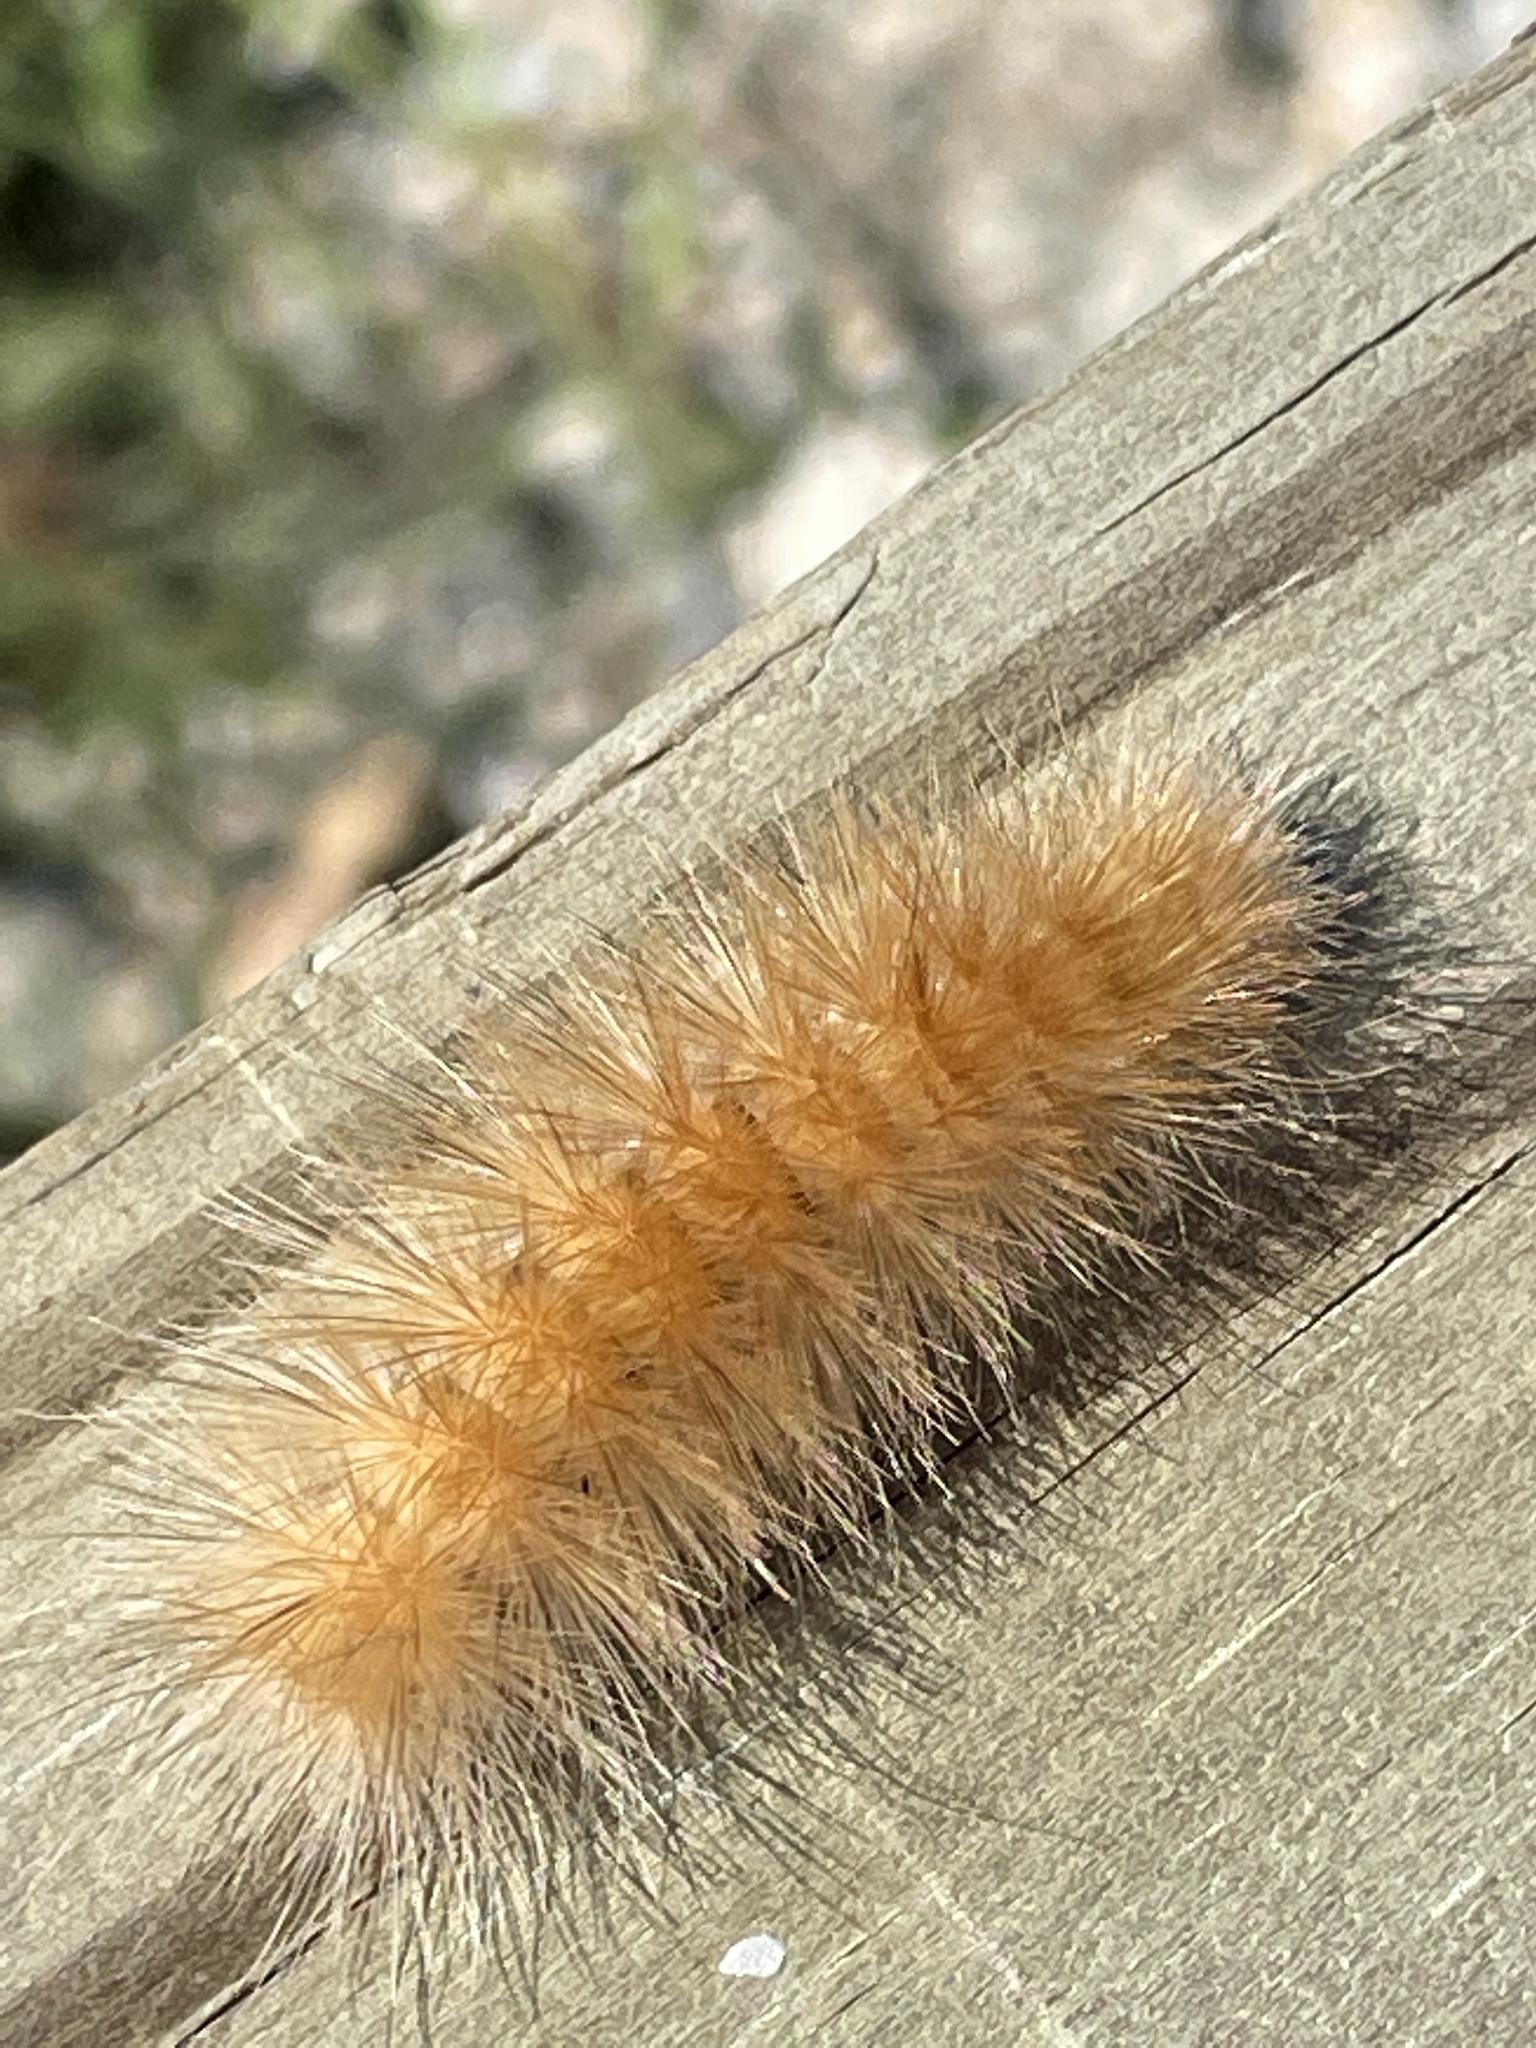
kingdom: Animalia
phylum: Arthropoda
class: Insecta
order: Lepidoptera
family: Erebidae
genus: Spilosoma
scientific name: Spilosoma virginica
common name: Virginia tiger moth
